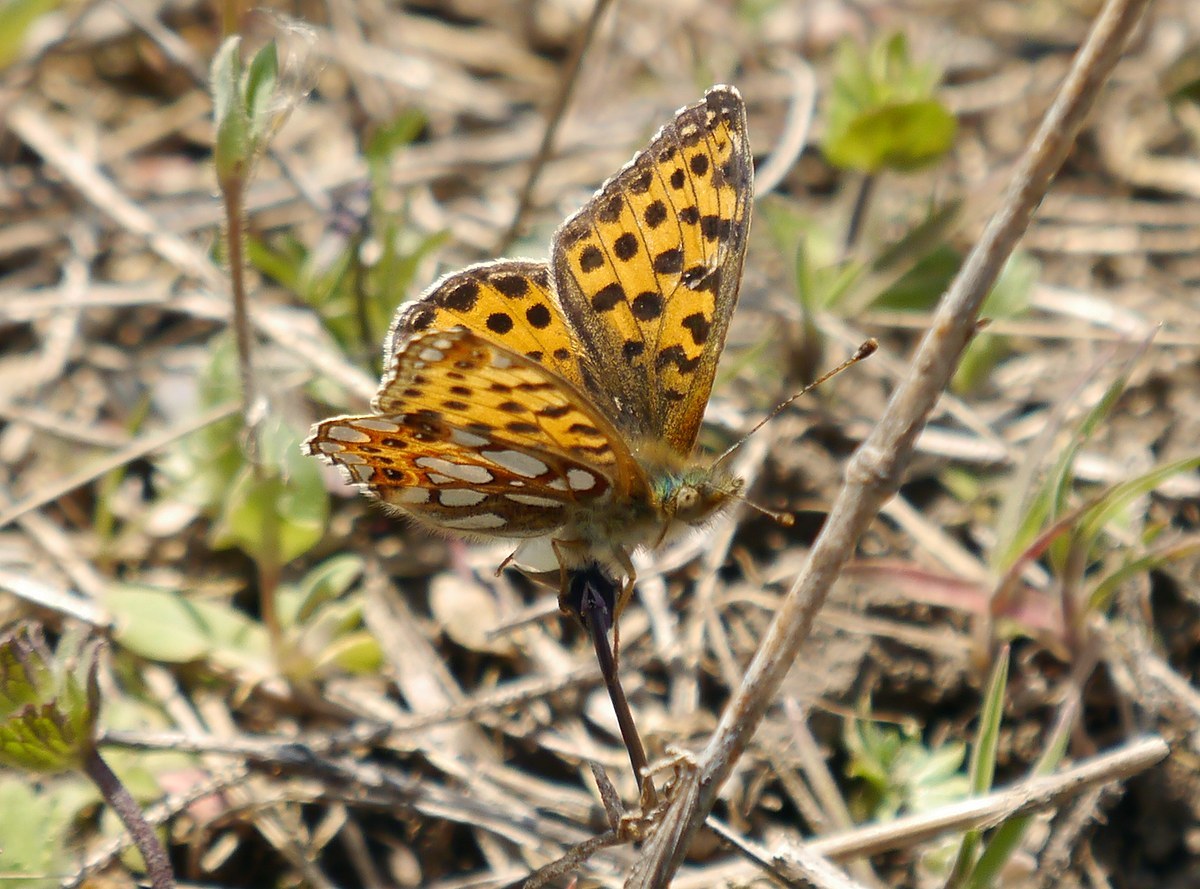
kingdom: Animalia
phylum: Arthropoda
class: Insecta
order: Lepidoptera
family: Nymphalidae
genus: Issoria
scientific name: Issoria lathonia
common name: Queen of spain fritillary
